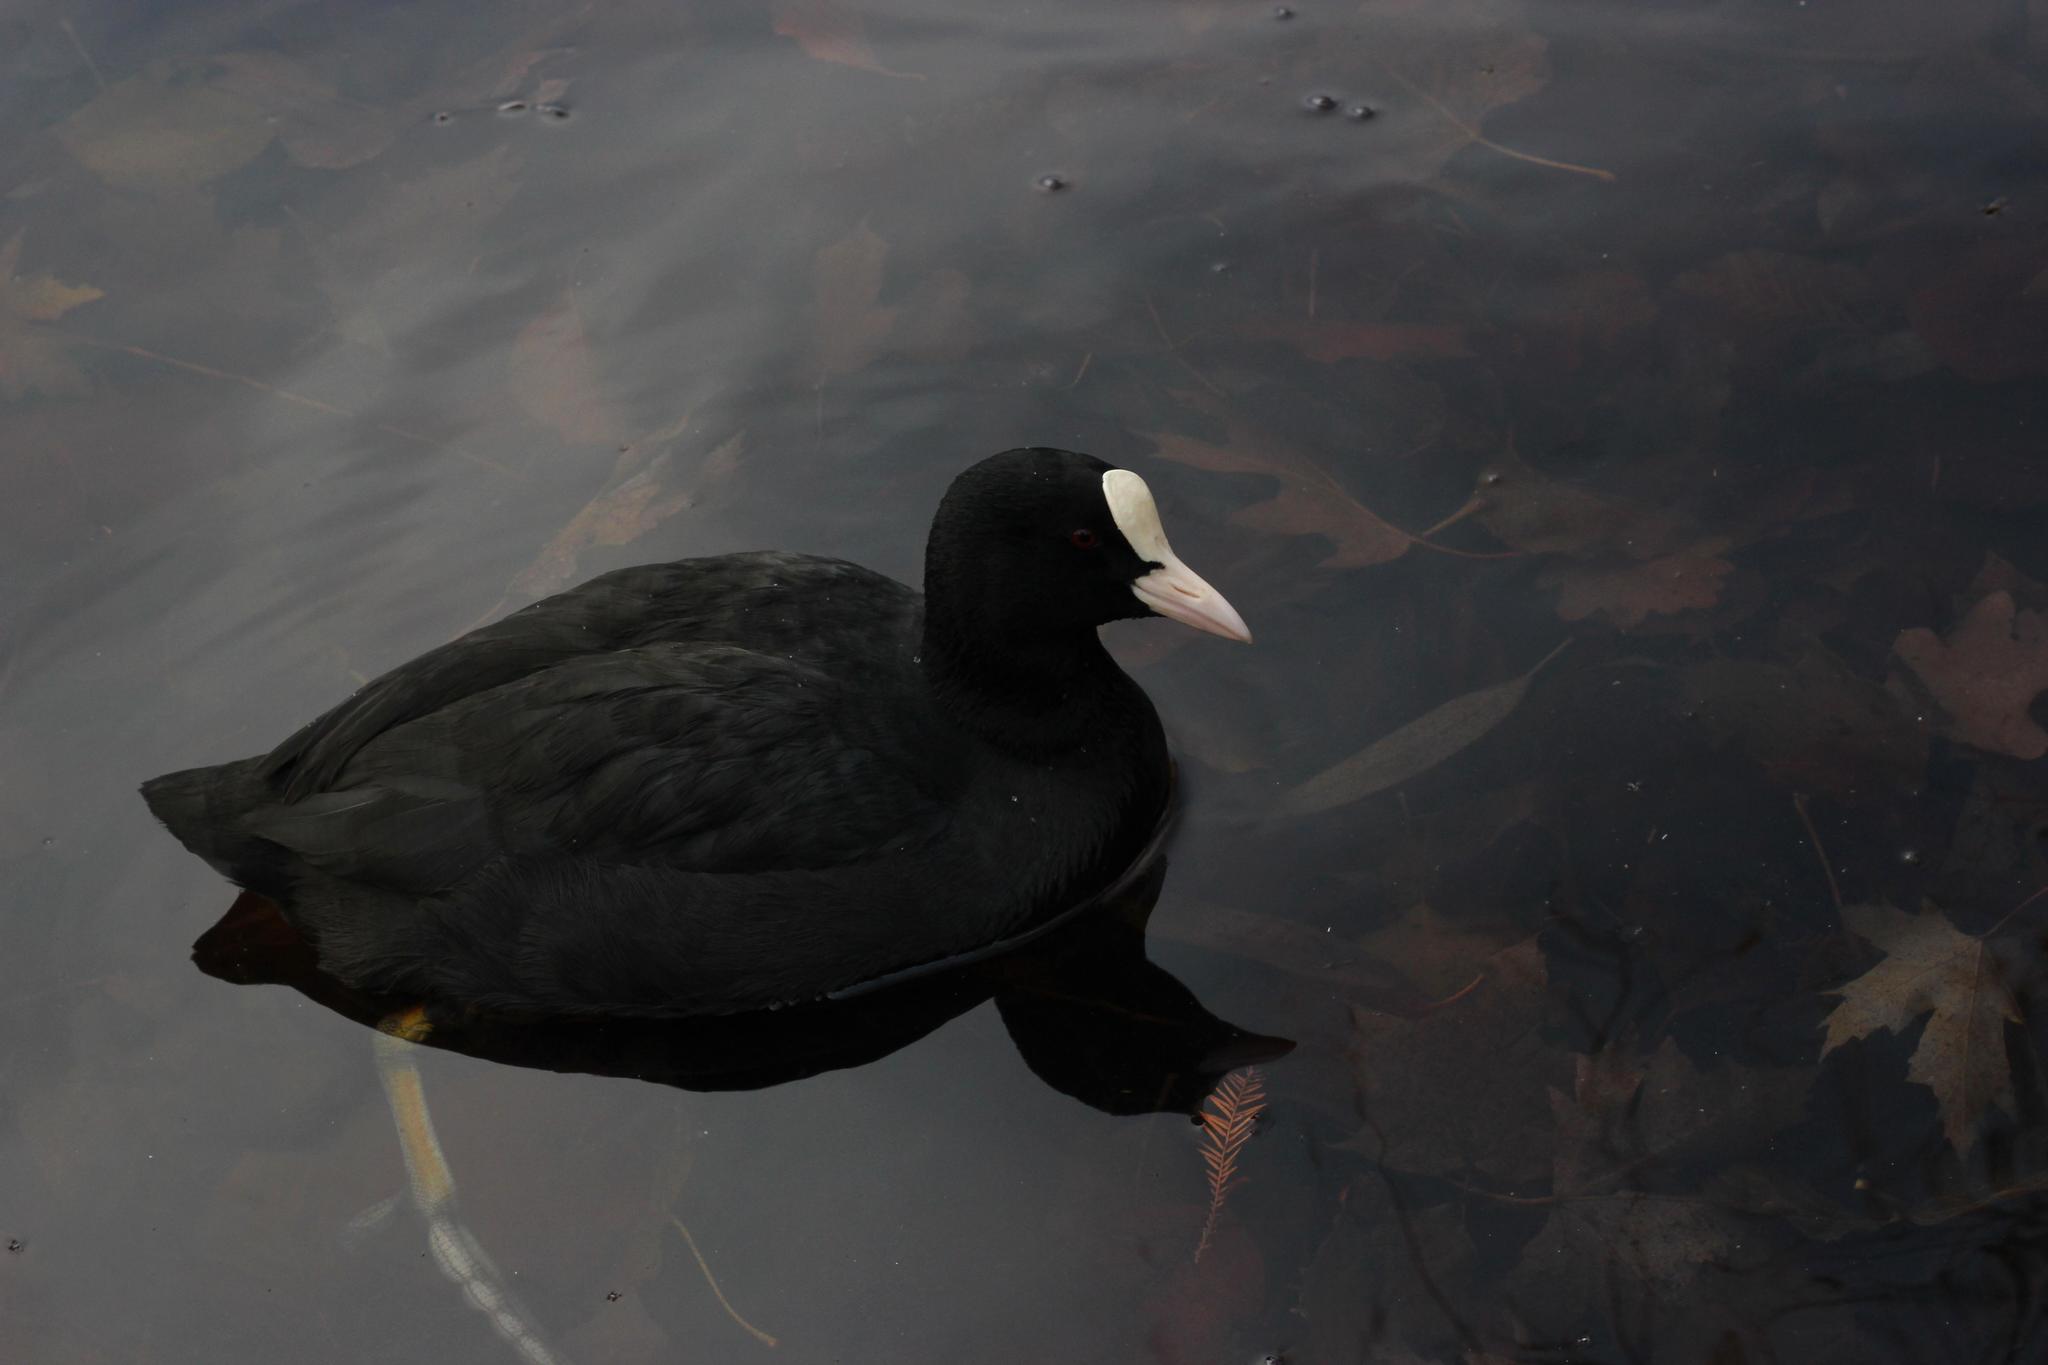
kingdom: Animalia
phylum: Chordata
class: Aves
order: Gruiformes
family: Rallidae
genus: Fulica
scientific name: Fulica atra
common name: Eurasian coot
